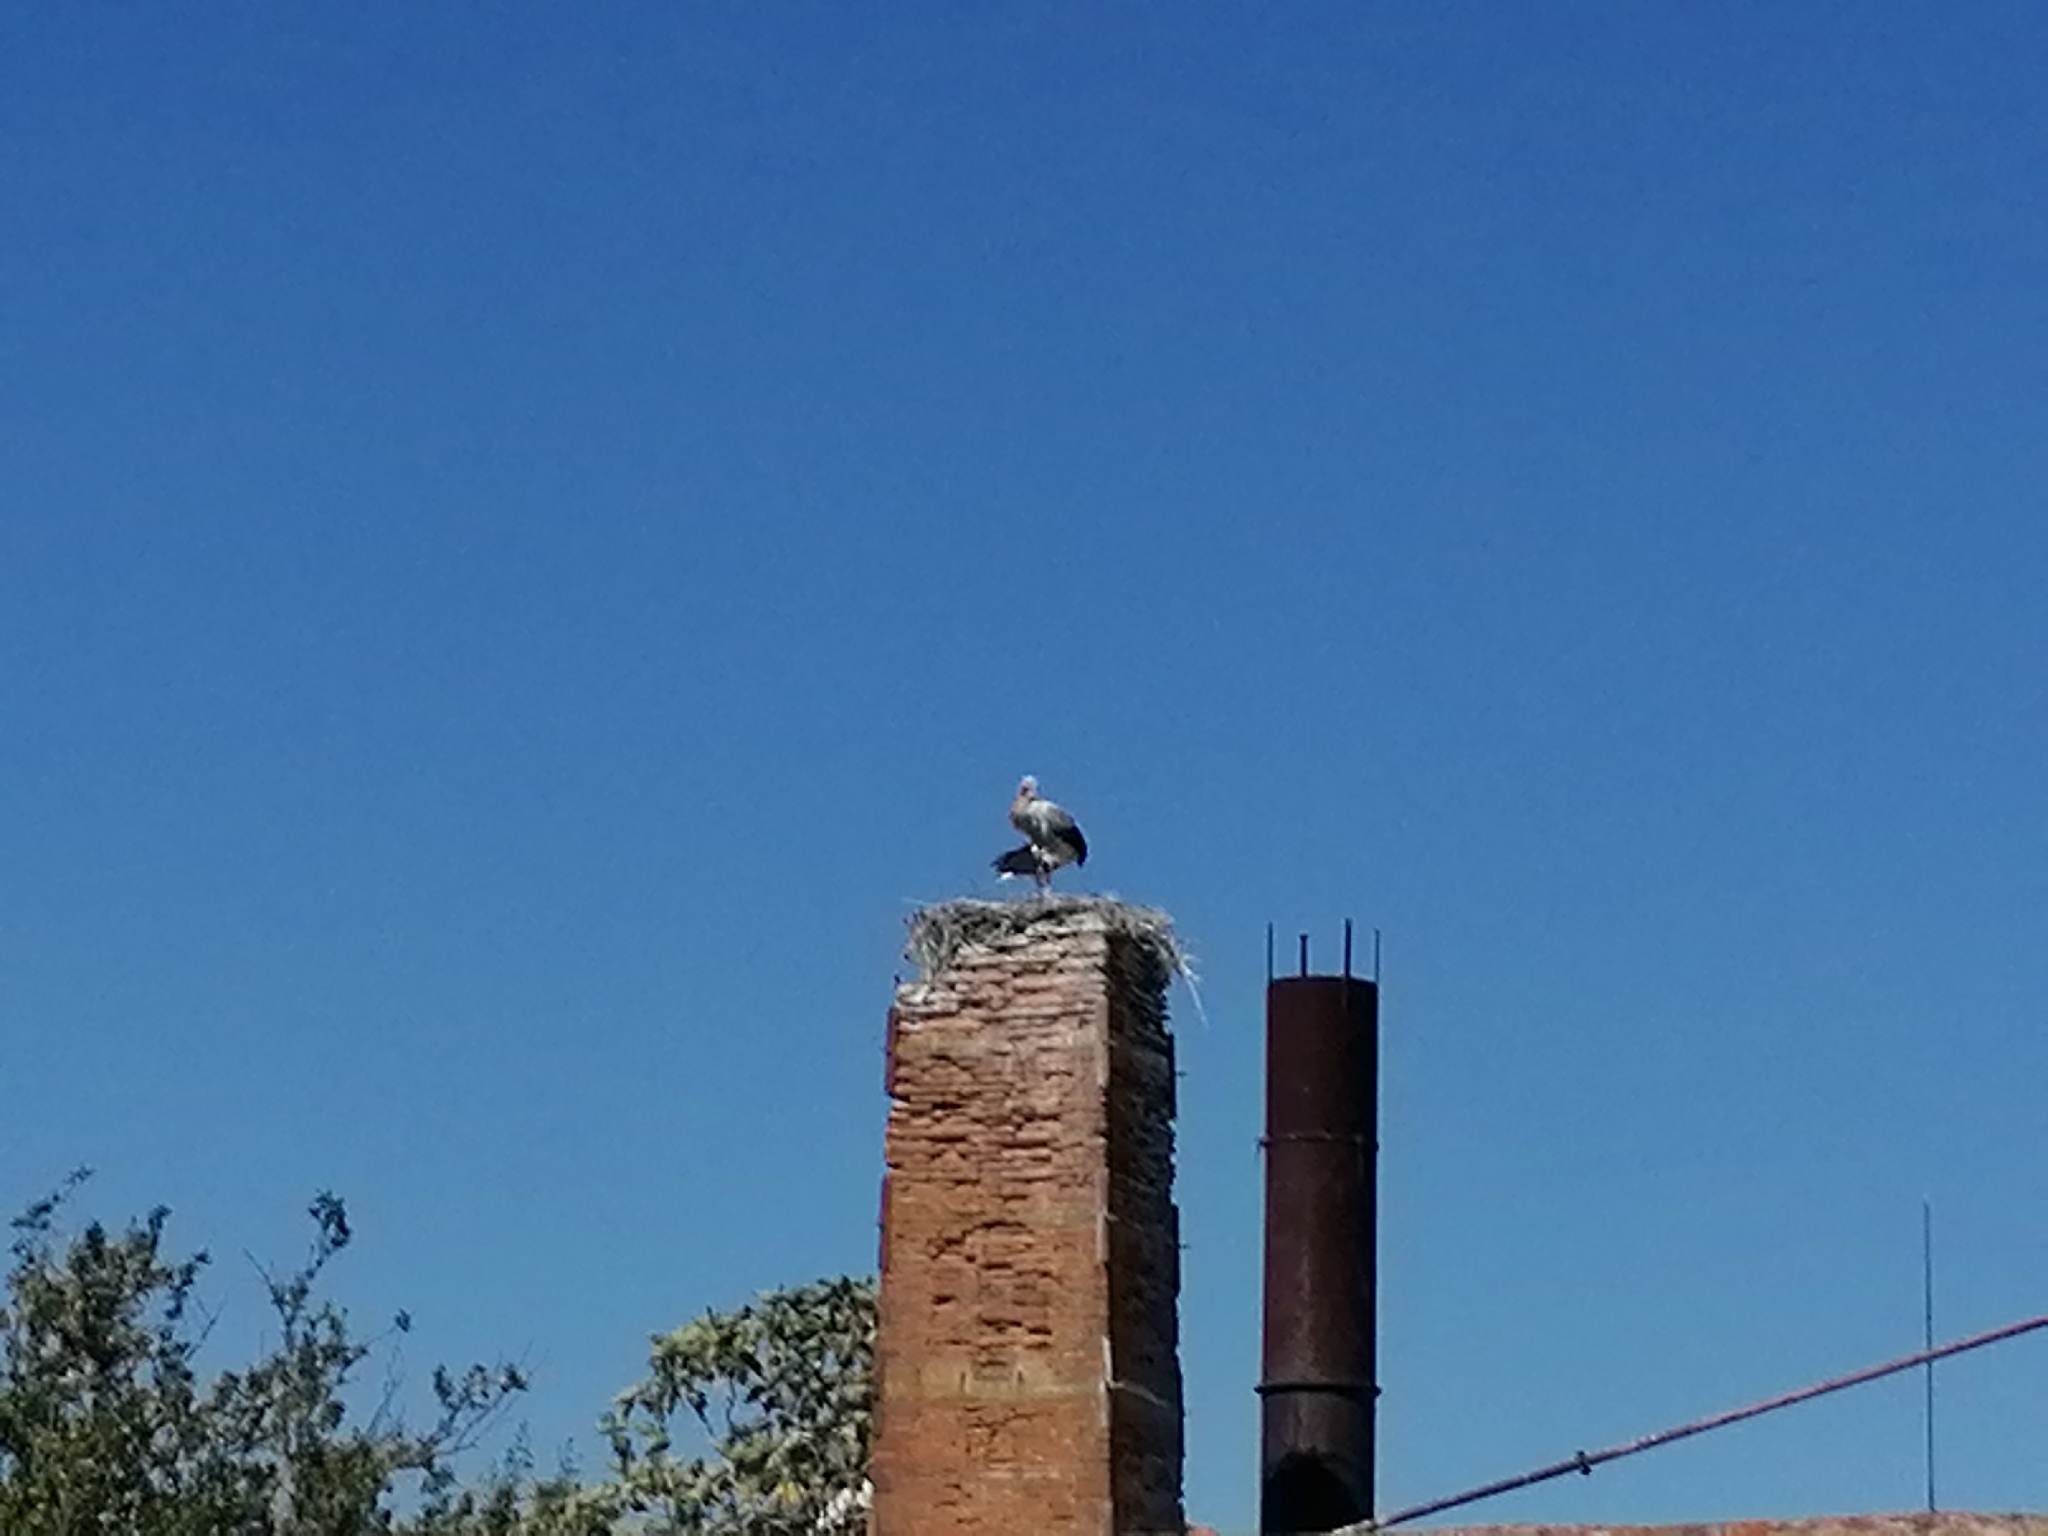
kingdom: Animalia
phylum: Chordata
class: Aves
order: Ciconiiformes
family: Ciconiidae
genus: Ciconia
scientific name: Ciconia ciconia
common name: White stork
